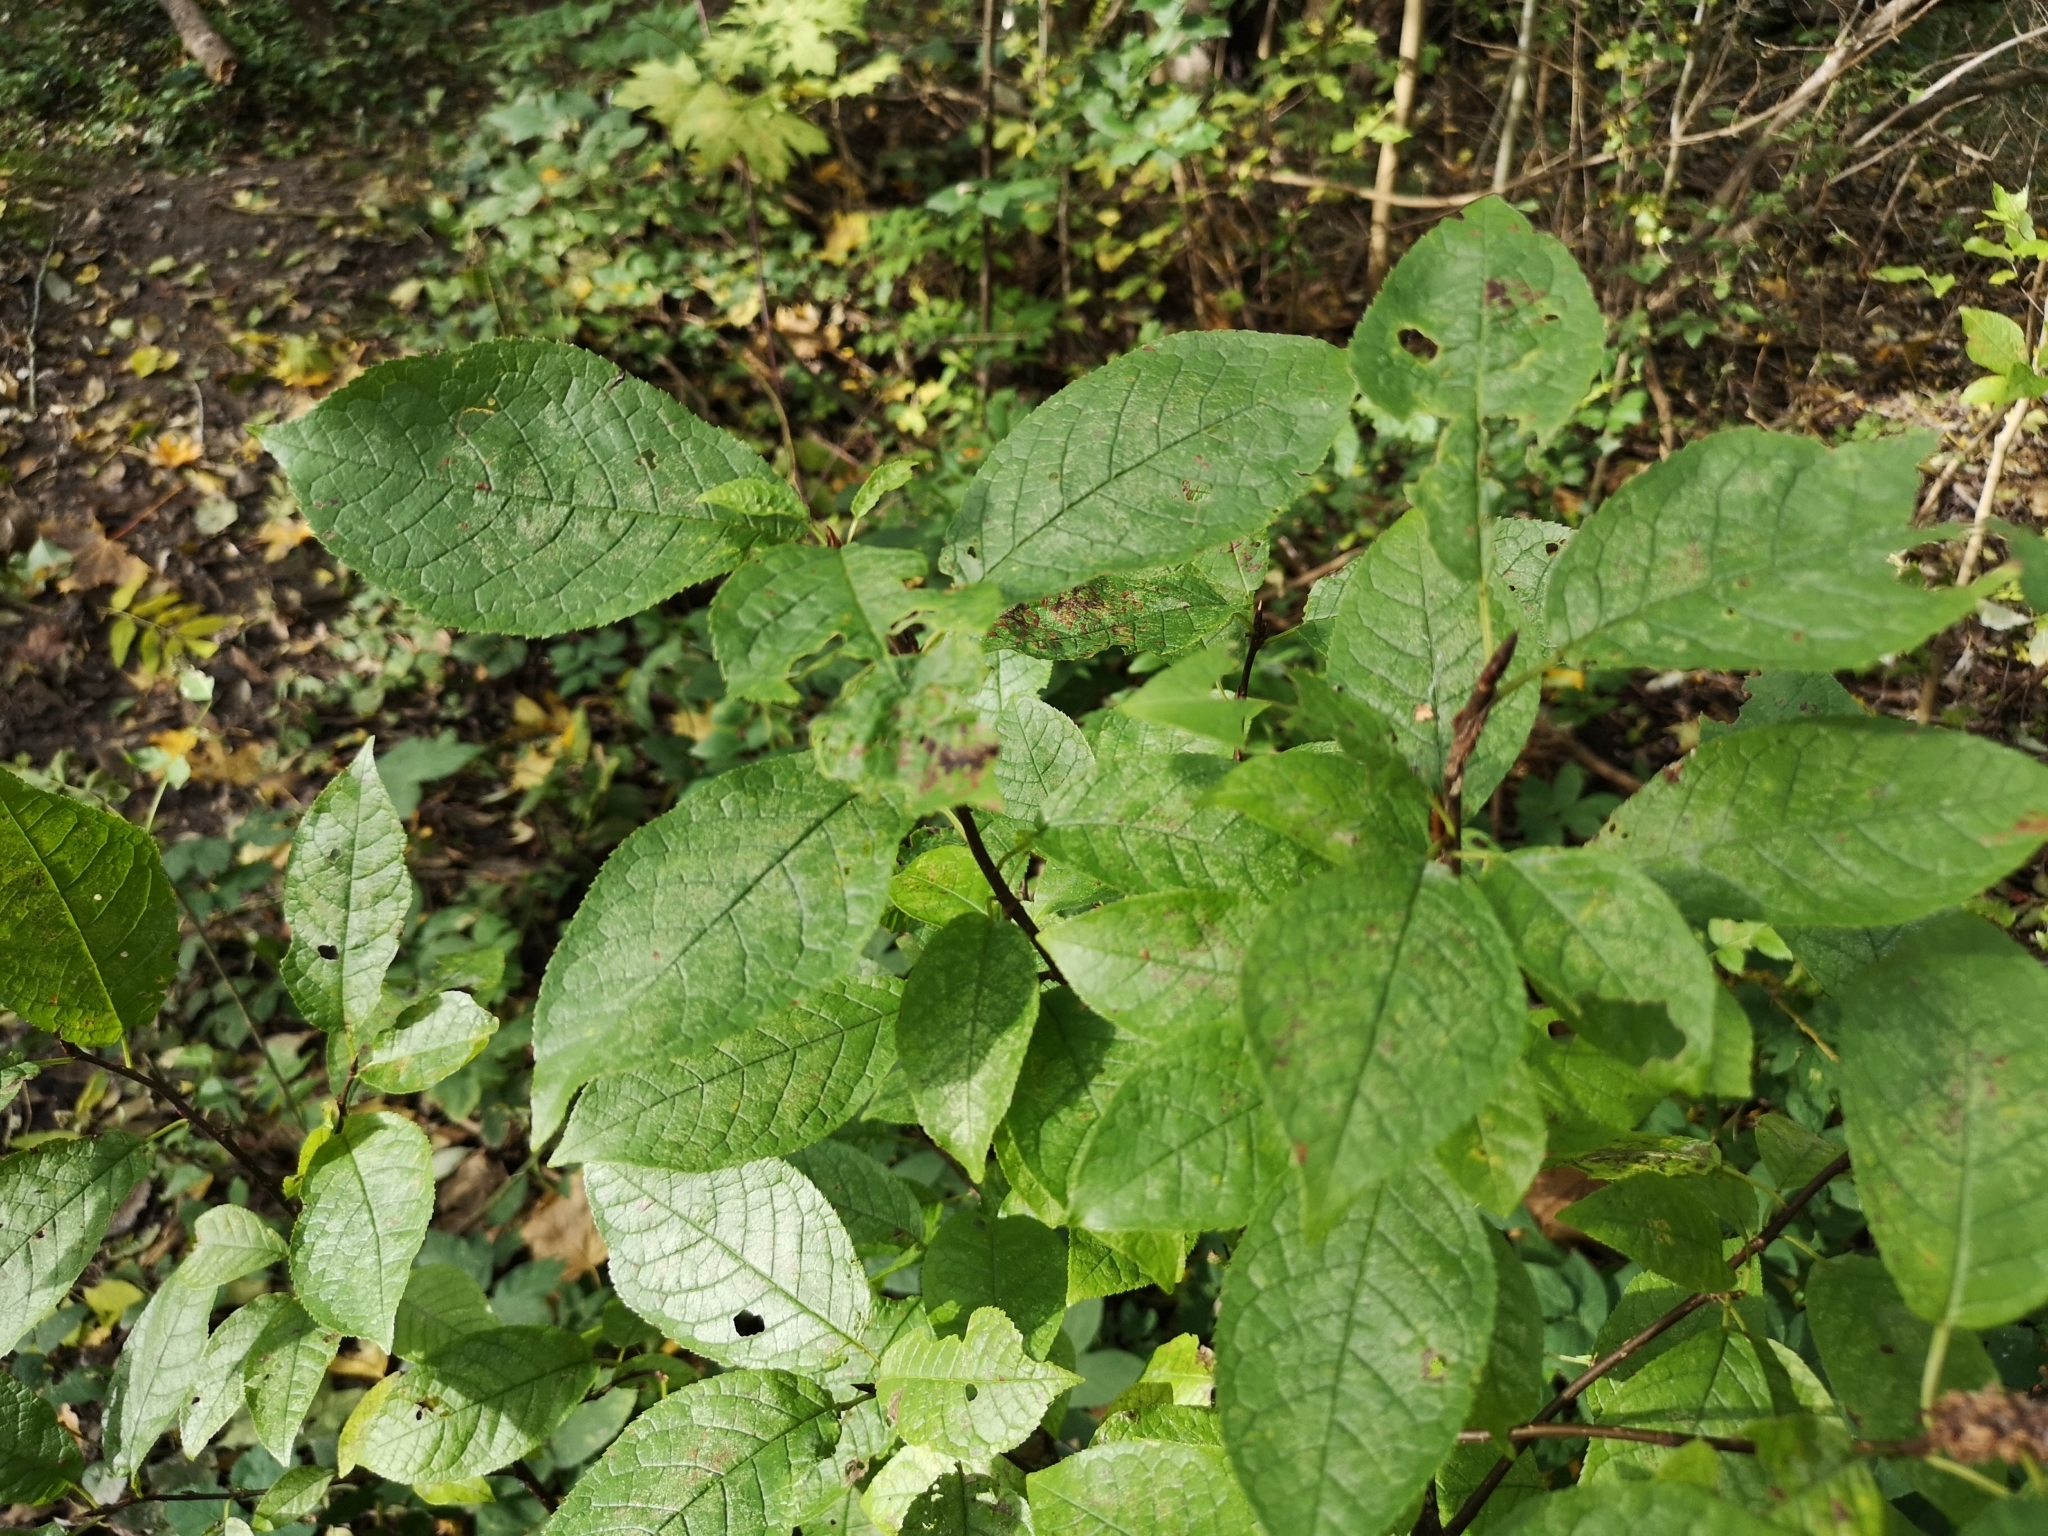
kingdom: Plantae
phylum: Tracheophyta
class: Magnoliopsida
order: Rosales
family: Rosaceae
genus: Prunus
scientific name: Prunus padus
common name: Bird cherry
